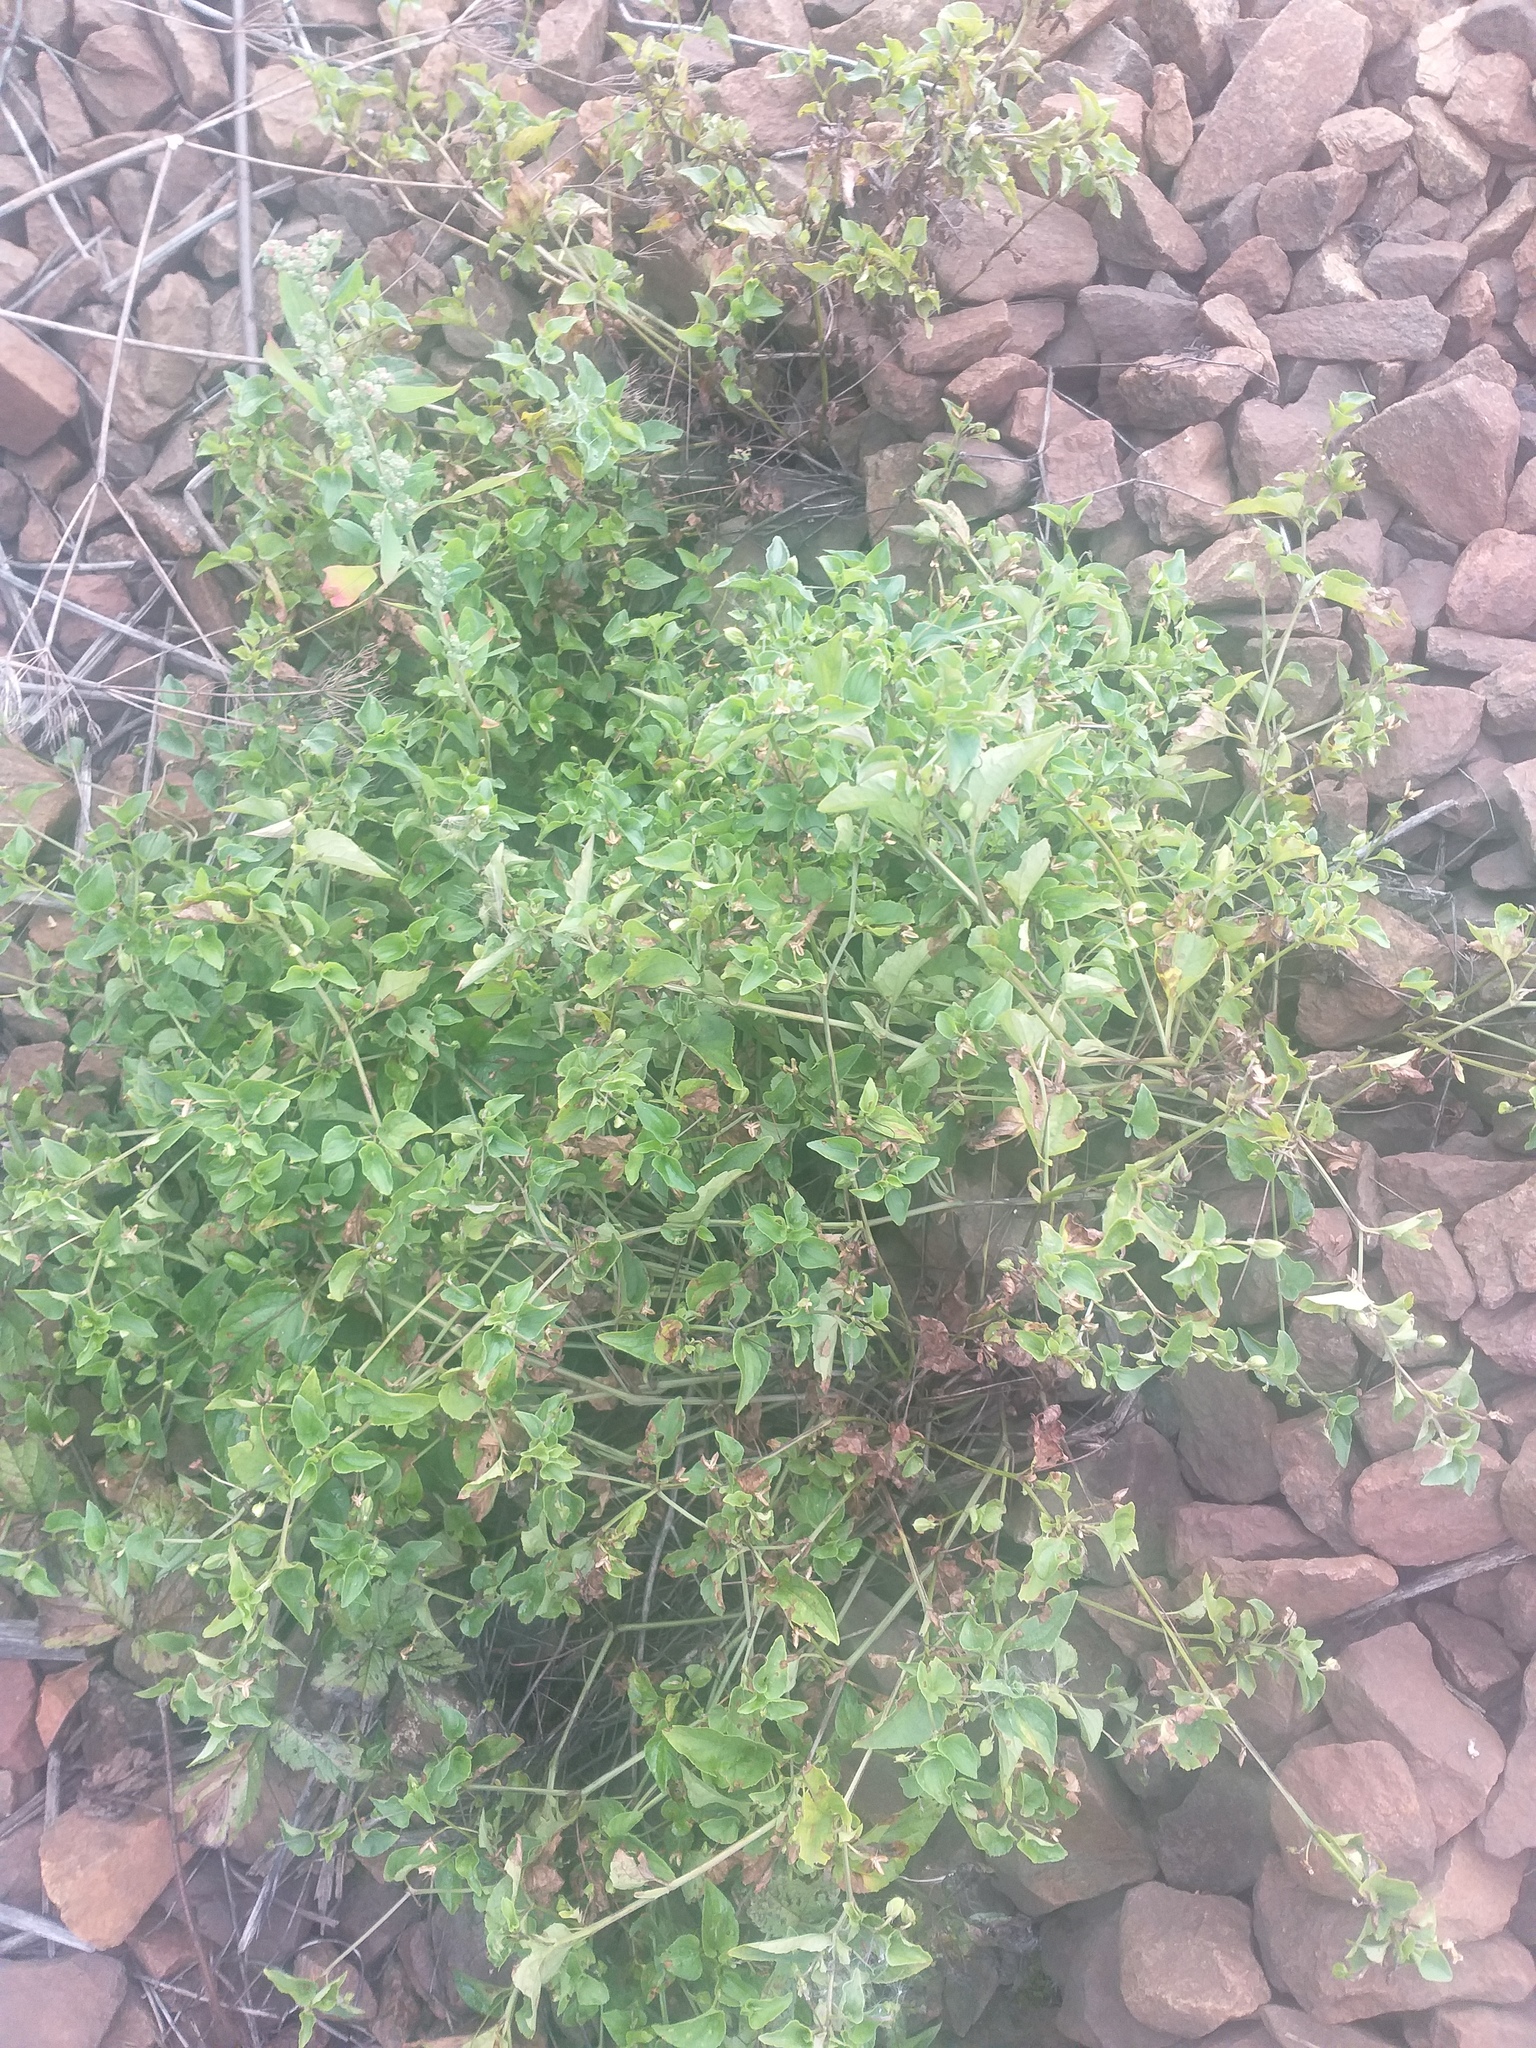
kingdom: Plantae
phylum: Tracheophyta
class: Magnoliopsida
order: Malpighiales
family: Violaceae
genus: Viola
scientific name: Viola canina
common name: Heath dog-violet
